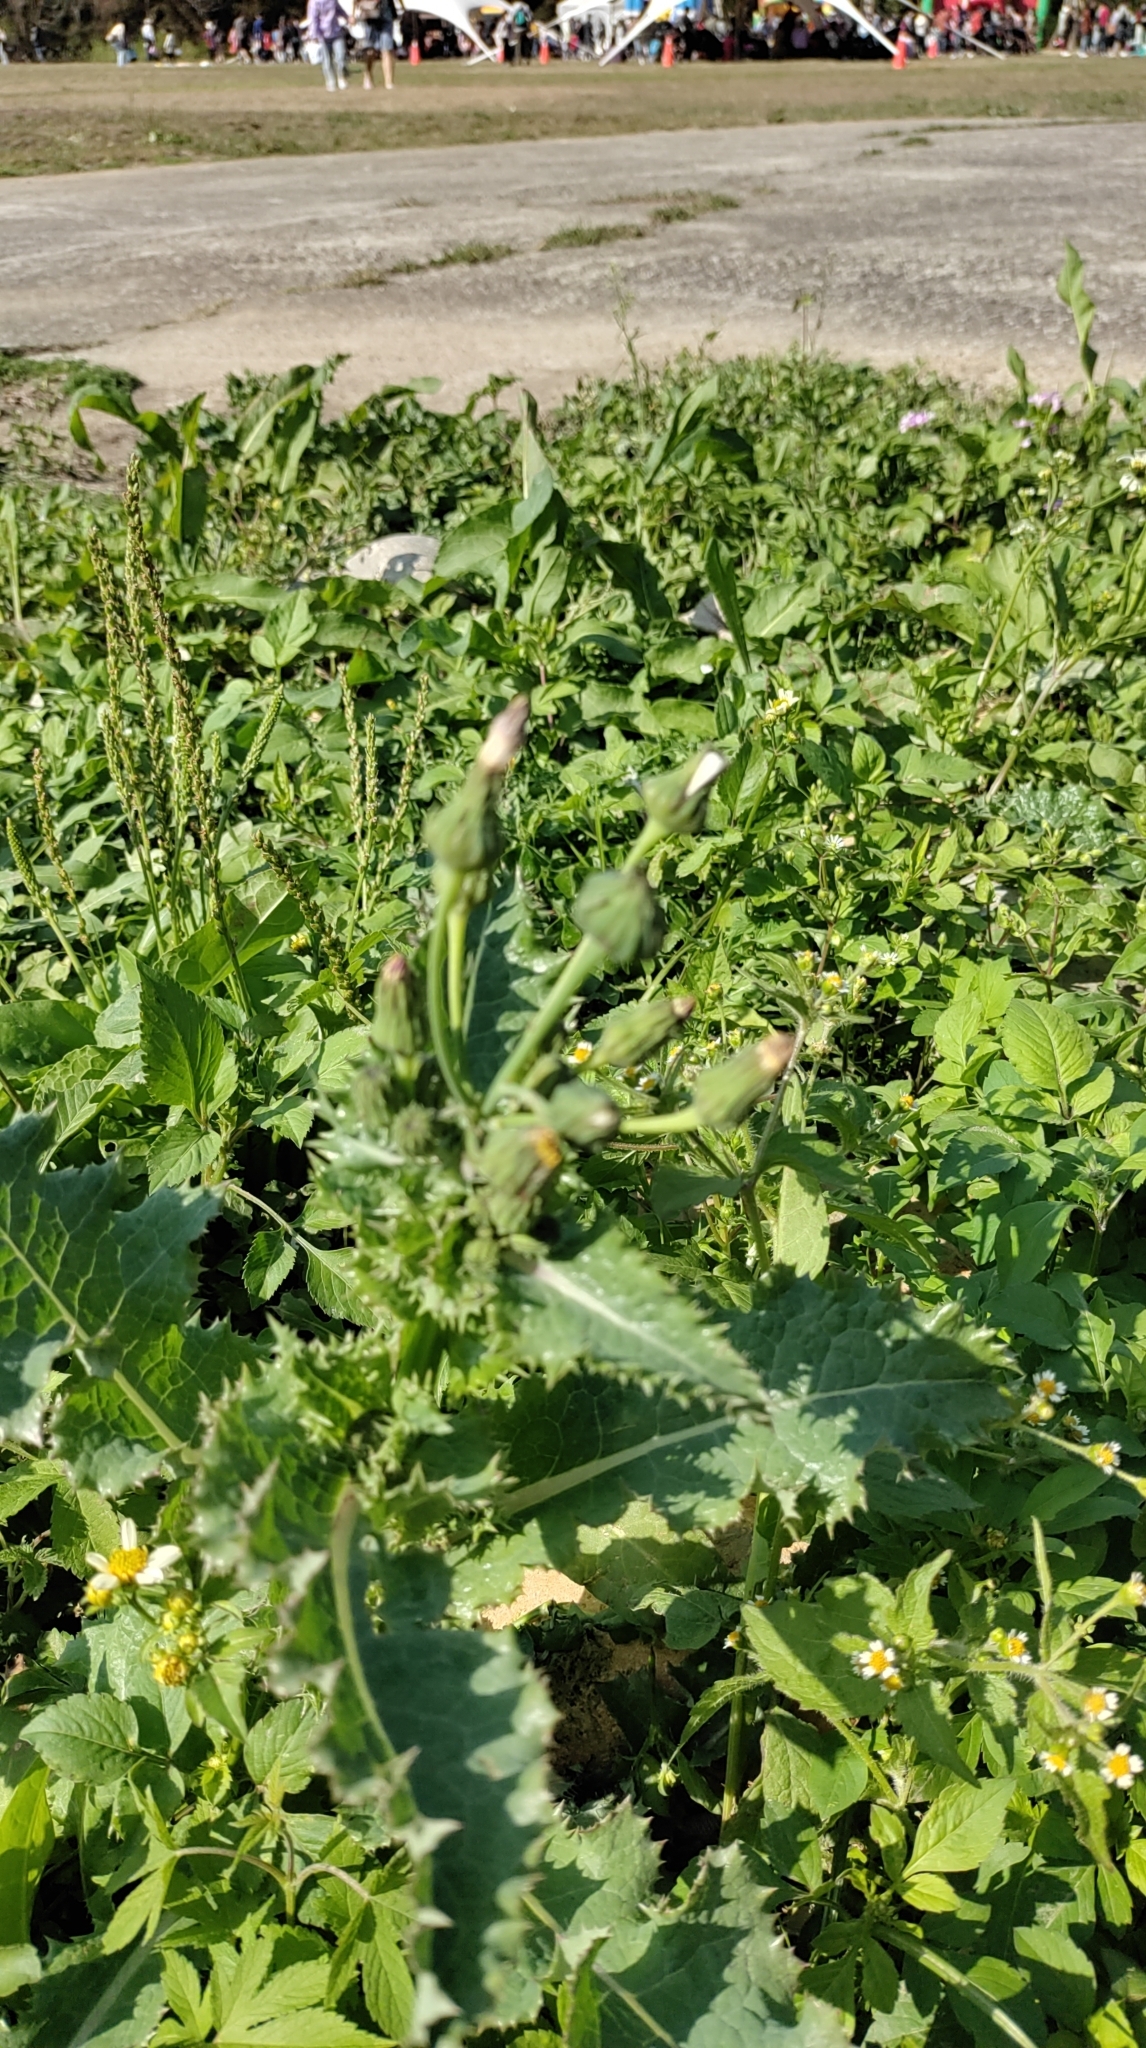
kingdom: Plantae
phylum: Tracheophyta
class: Magnoliopsida
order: Asterales
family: Asteraceae
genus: Sonchus
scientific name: Sonchus asper
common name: Prickly sow-thistle
